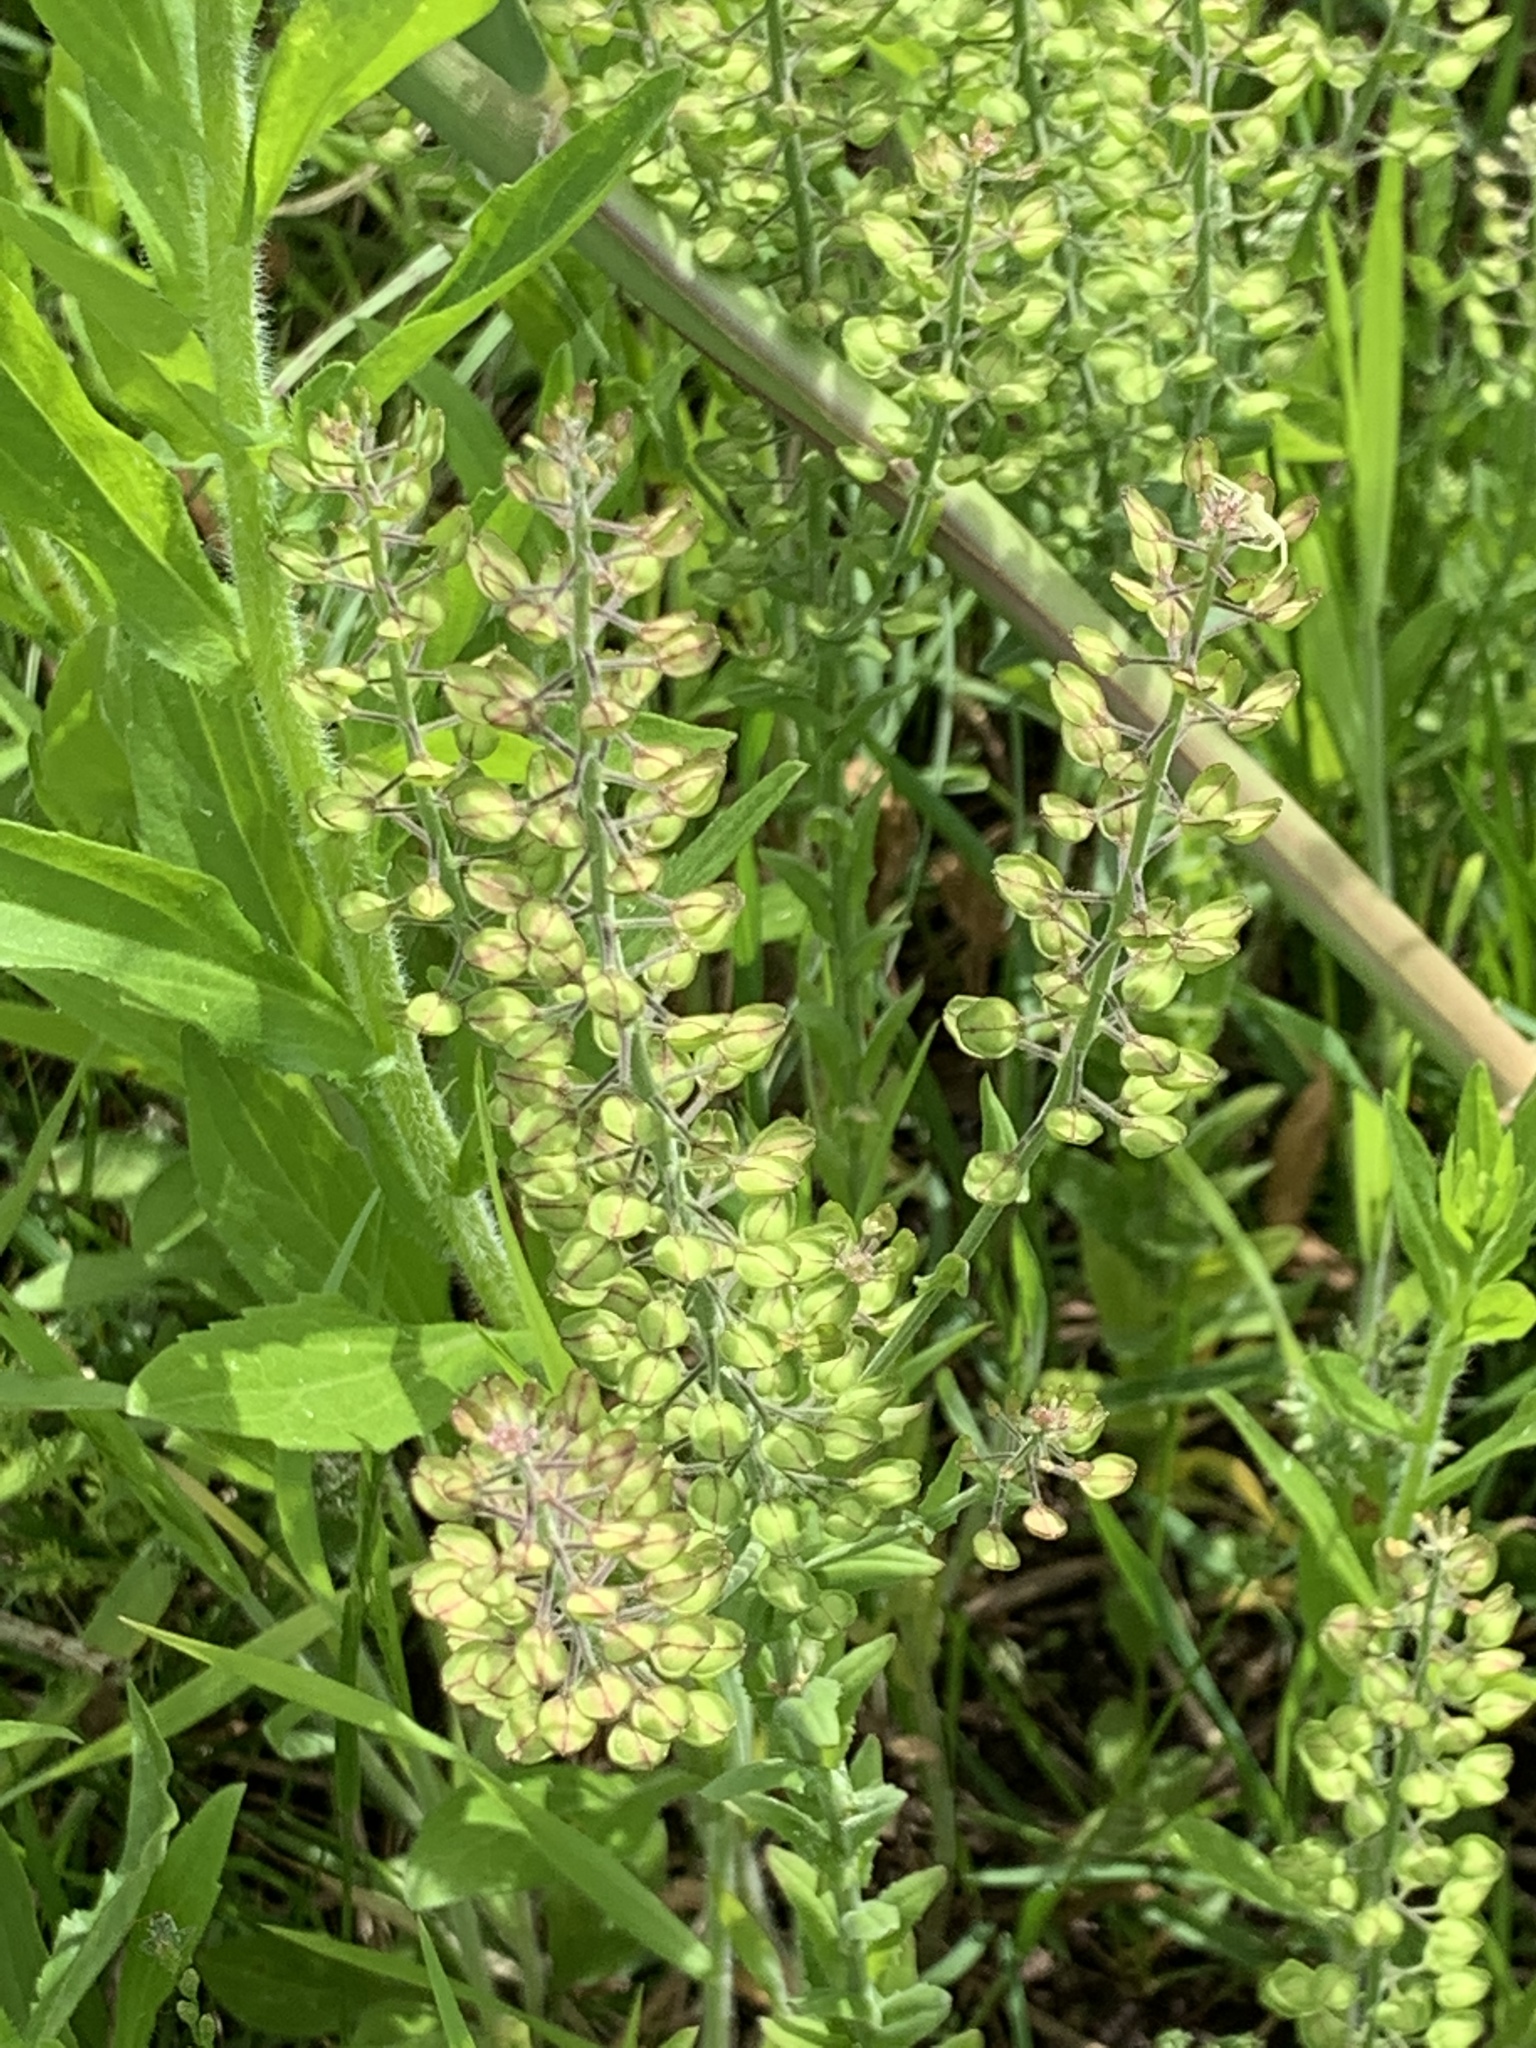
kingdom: Plantae
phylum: Tracheophyta
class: Magnoliopsida
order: Brassicales
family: Brassicaceae
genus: Lepidium
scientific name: Lepidium virginicum
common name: Least pepperwort
